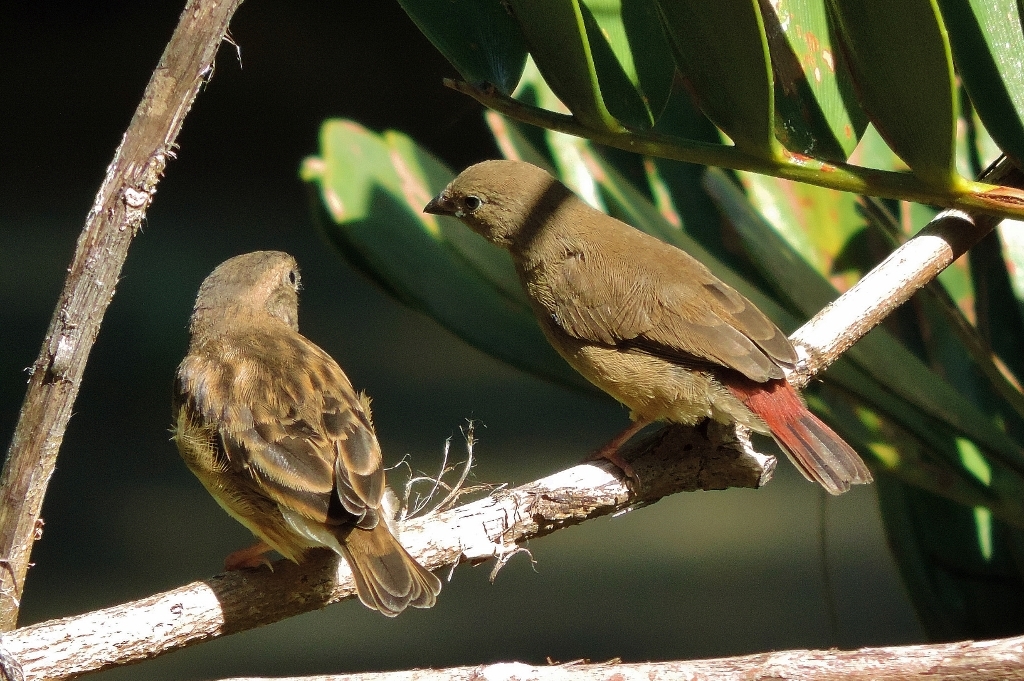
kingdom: Animalia
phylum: Chordata
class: Aves
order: Passeriformes
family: Estrildidae
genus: Lagonosticta
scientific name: Lagonosticta senegala
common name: Red-billed firefinch
